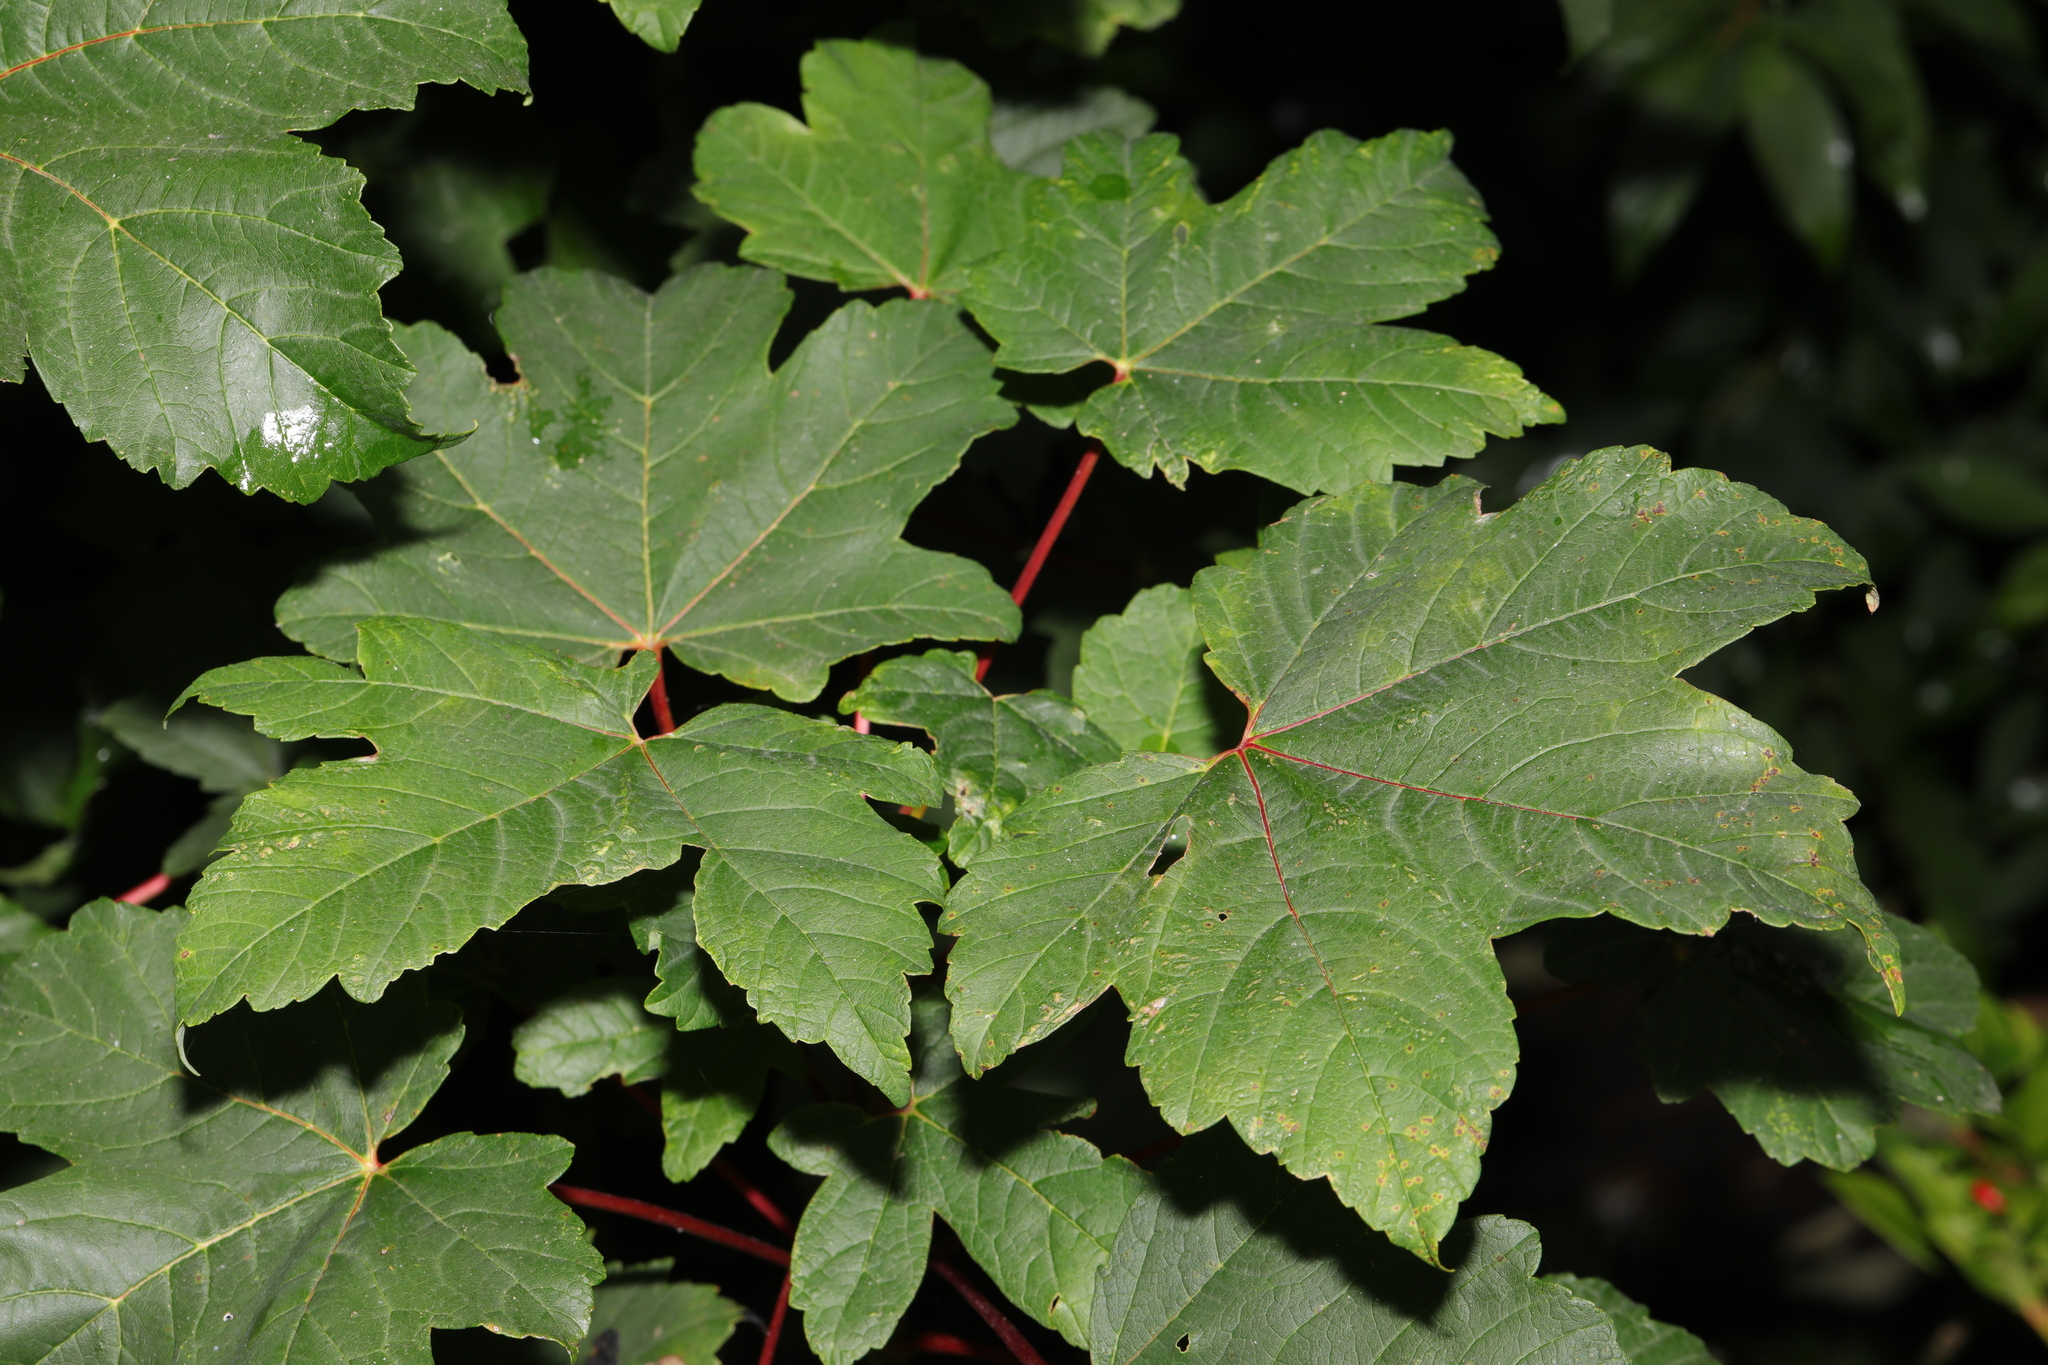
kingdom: Plantae
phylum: Tracheophyta
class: Magnoliopsida
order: Sapindales
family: Sapindaceae
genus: Acer
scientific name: Acer pseudoplatanus
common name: Sycamore
